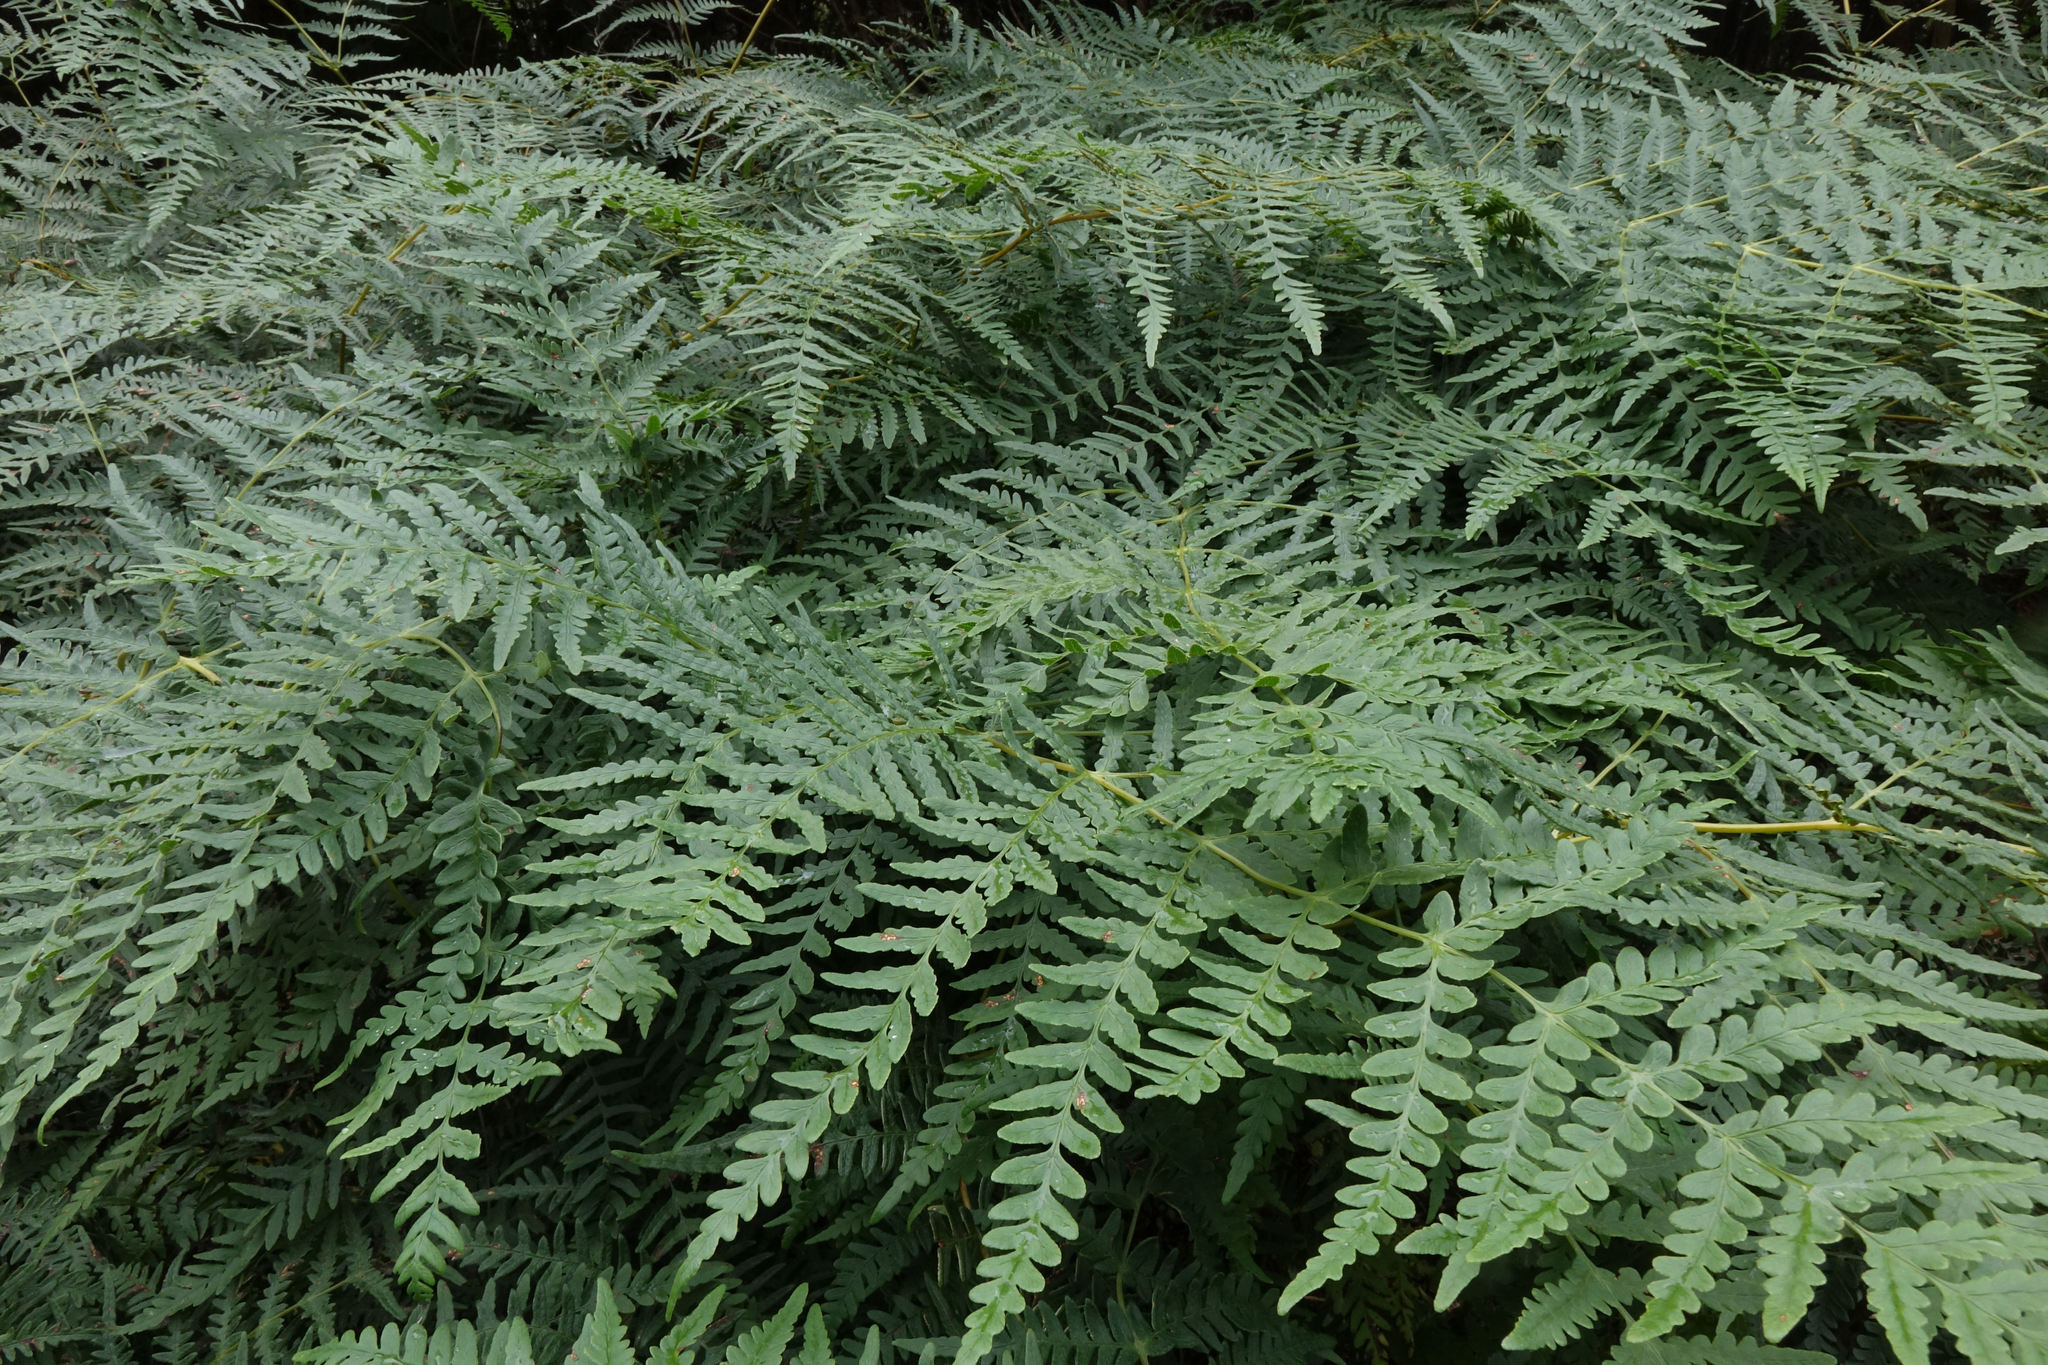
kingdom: Plantae
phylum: Tracheophyta
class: Polypodiopsida
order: Polypodiales
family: Dennstaedtiaceae
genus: Histiopteris
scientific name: Histiopteris incisa
